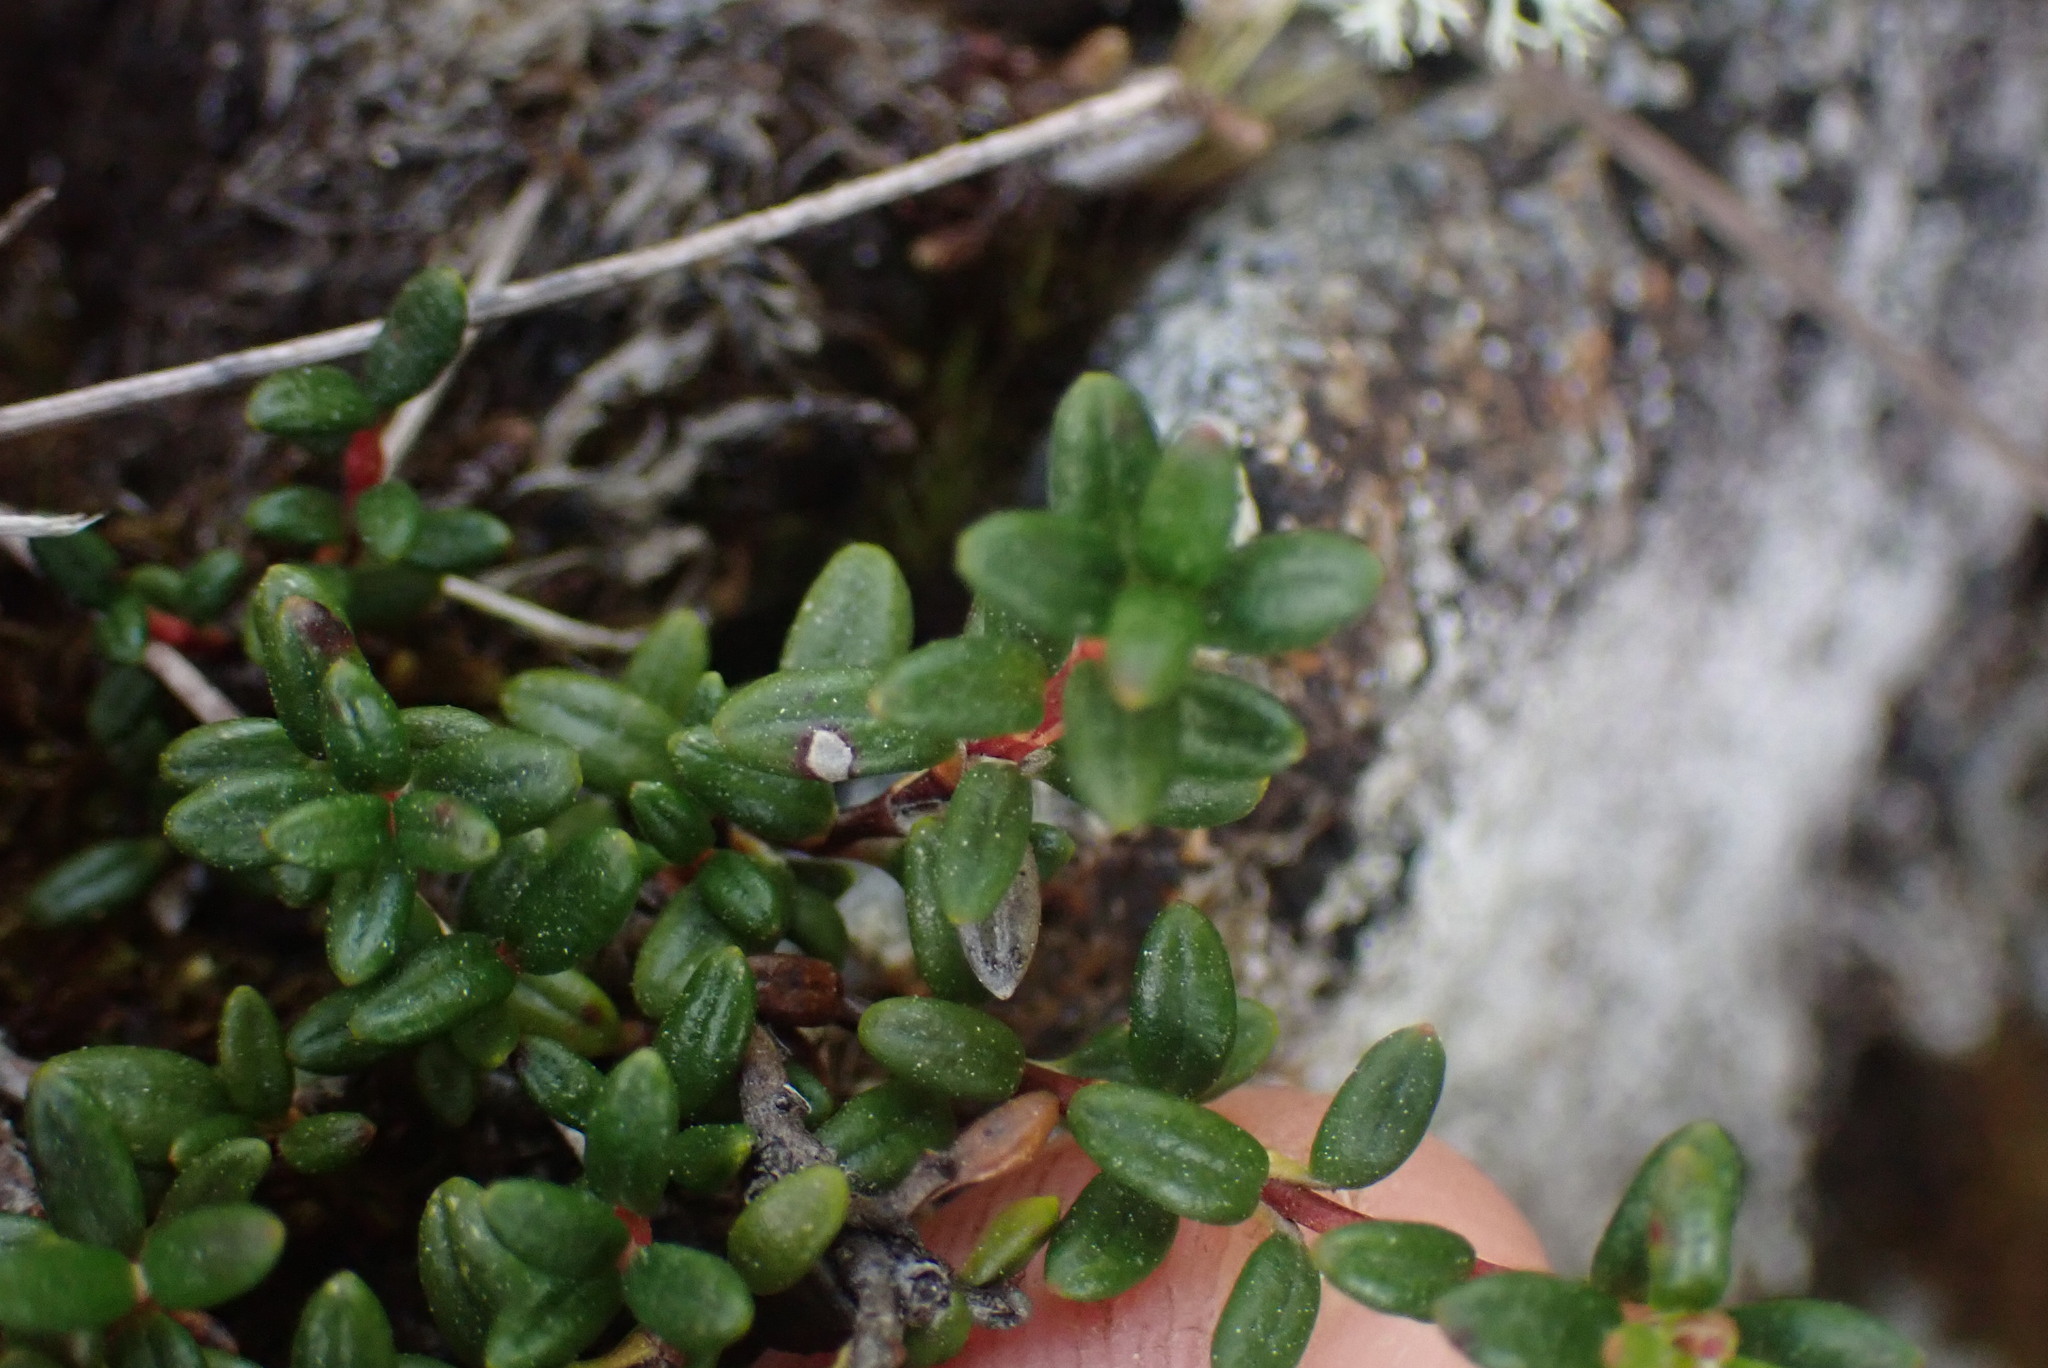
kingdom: Plantae
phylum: Tracheophyta
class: Magnoliopsida
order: Ericales
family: Ericaceae
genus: Kalmia
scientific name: Kalmia procumbens
